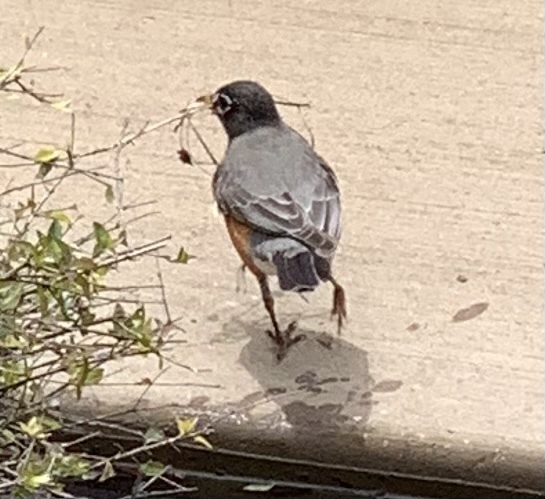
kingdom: Animalia
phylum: Chordata
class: Aves
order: Passeriformes
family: Turdidae
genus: Turdus
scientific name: Turdus migratorius
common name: American robin
